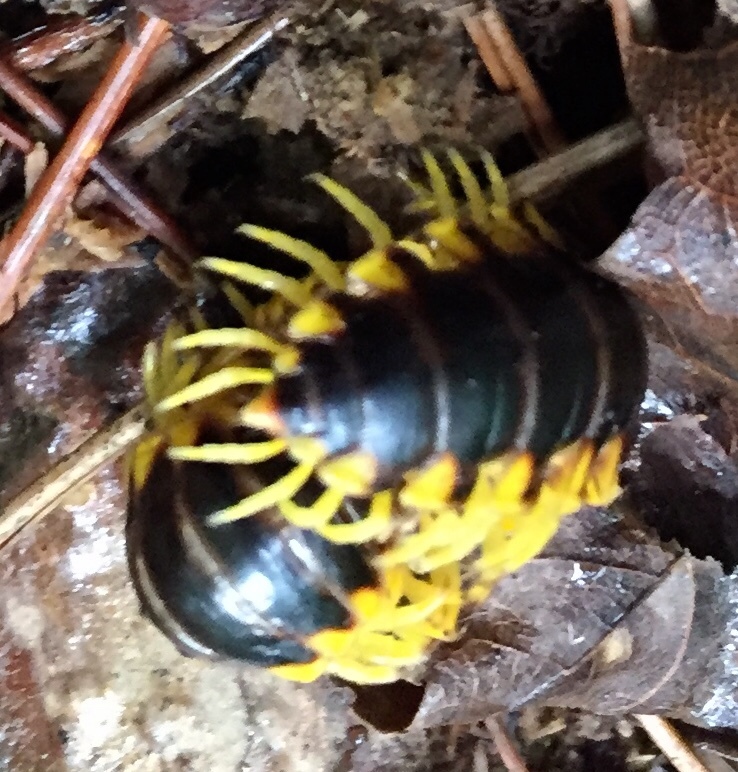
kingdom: Animalia
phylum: Arthropoda
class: Diplopoda
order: Polydesmida
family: Xystodesmidae
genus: Apheloria
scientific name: Apheloria tigana
